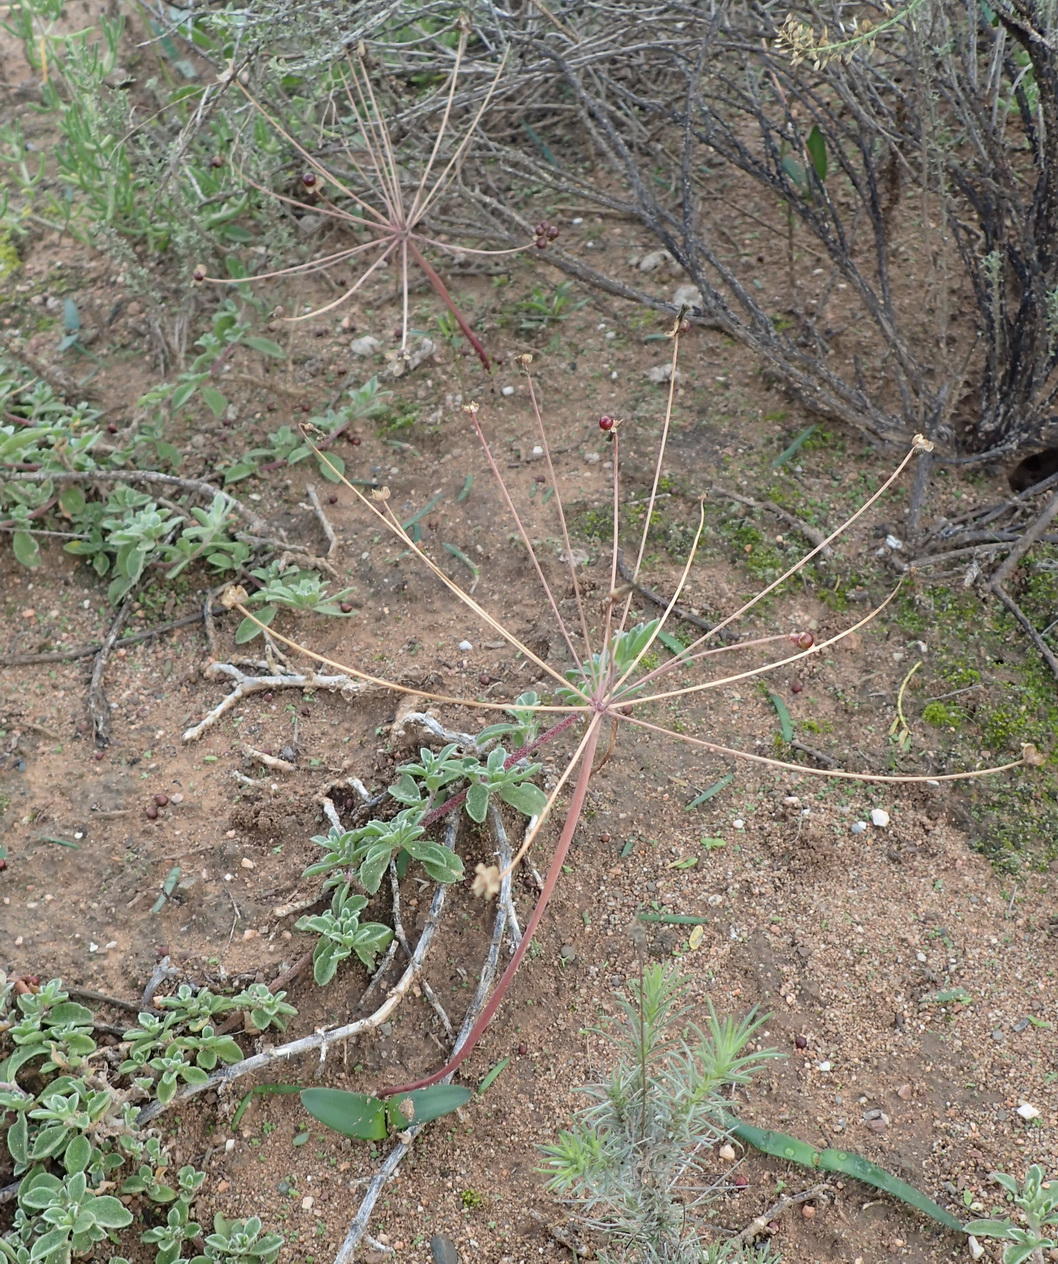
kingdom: Plantae
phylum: Tracheophyta
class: Liliopsida
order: Asparagales
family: Amaryllidaceae
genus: Strumaria
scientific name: Strumaria gemmata
